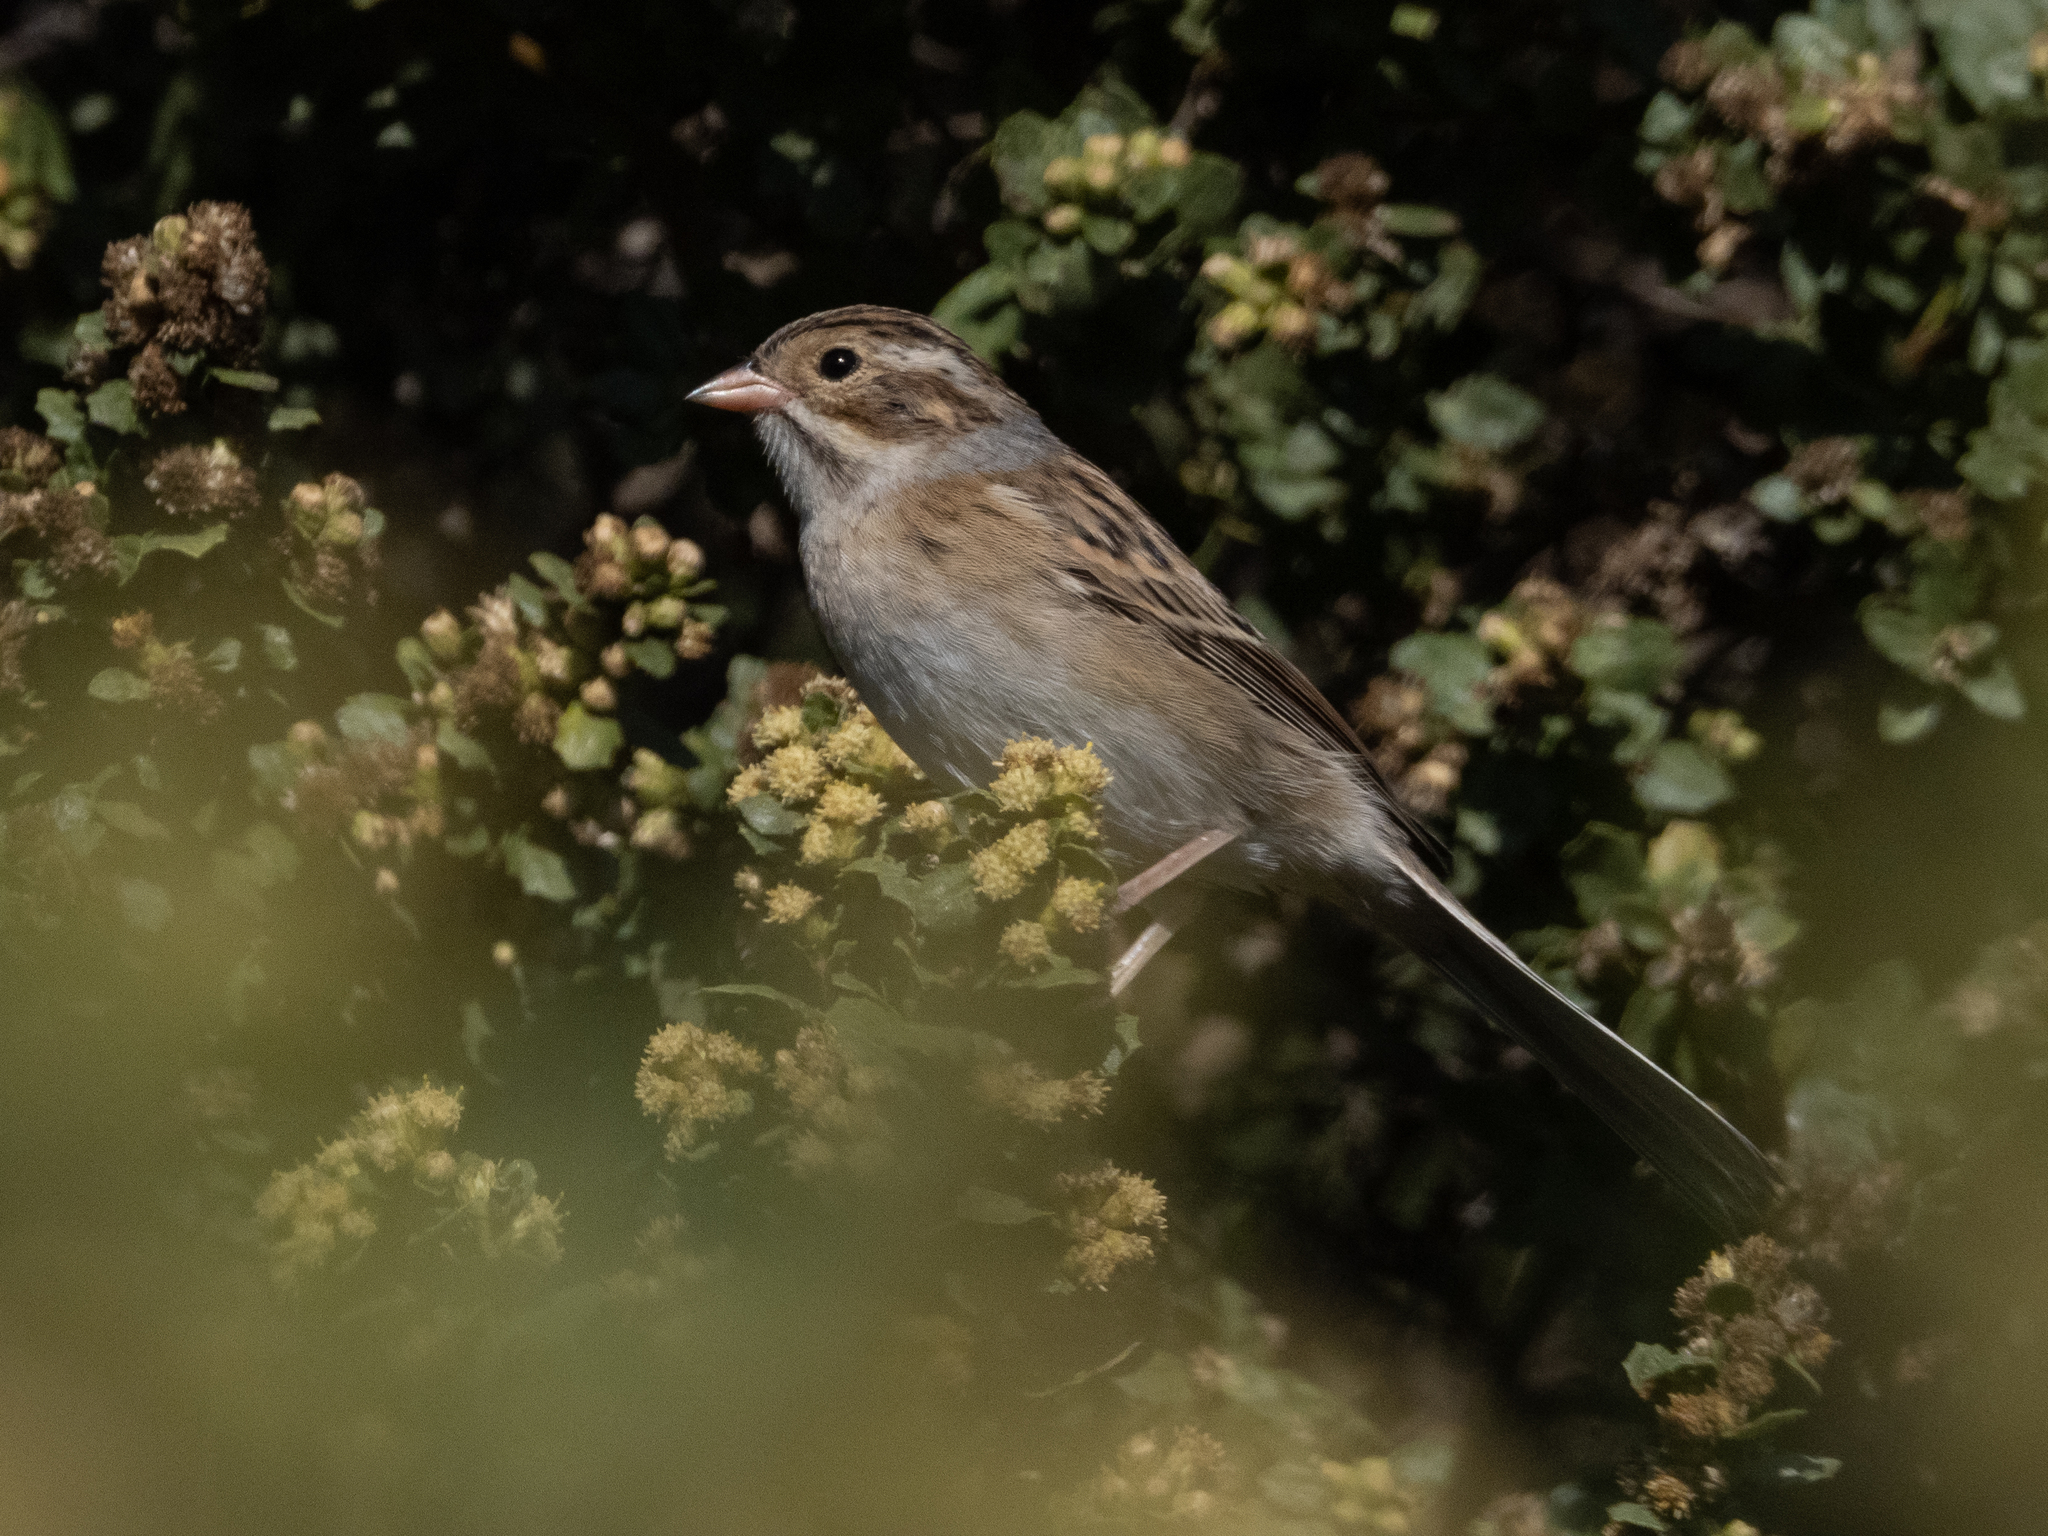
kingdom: Animalia
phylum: Chordata
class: Aves
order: Passeriformes
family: Passerellidae
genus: Spizella
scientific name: Spizella pallida
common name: Clay-colored sparrow
